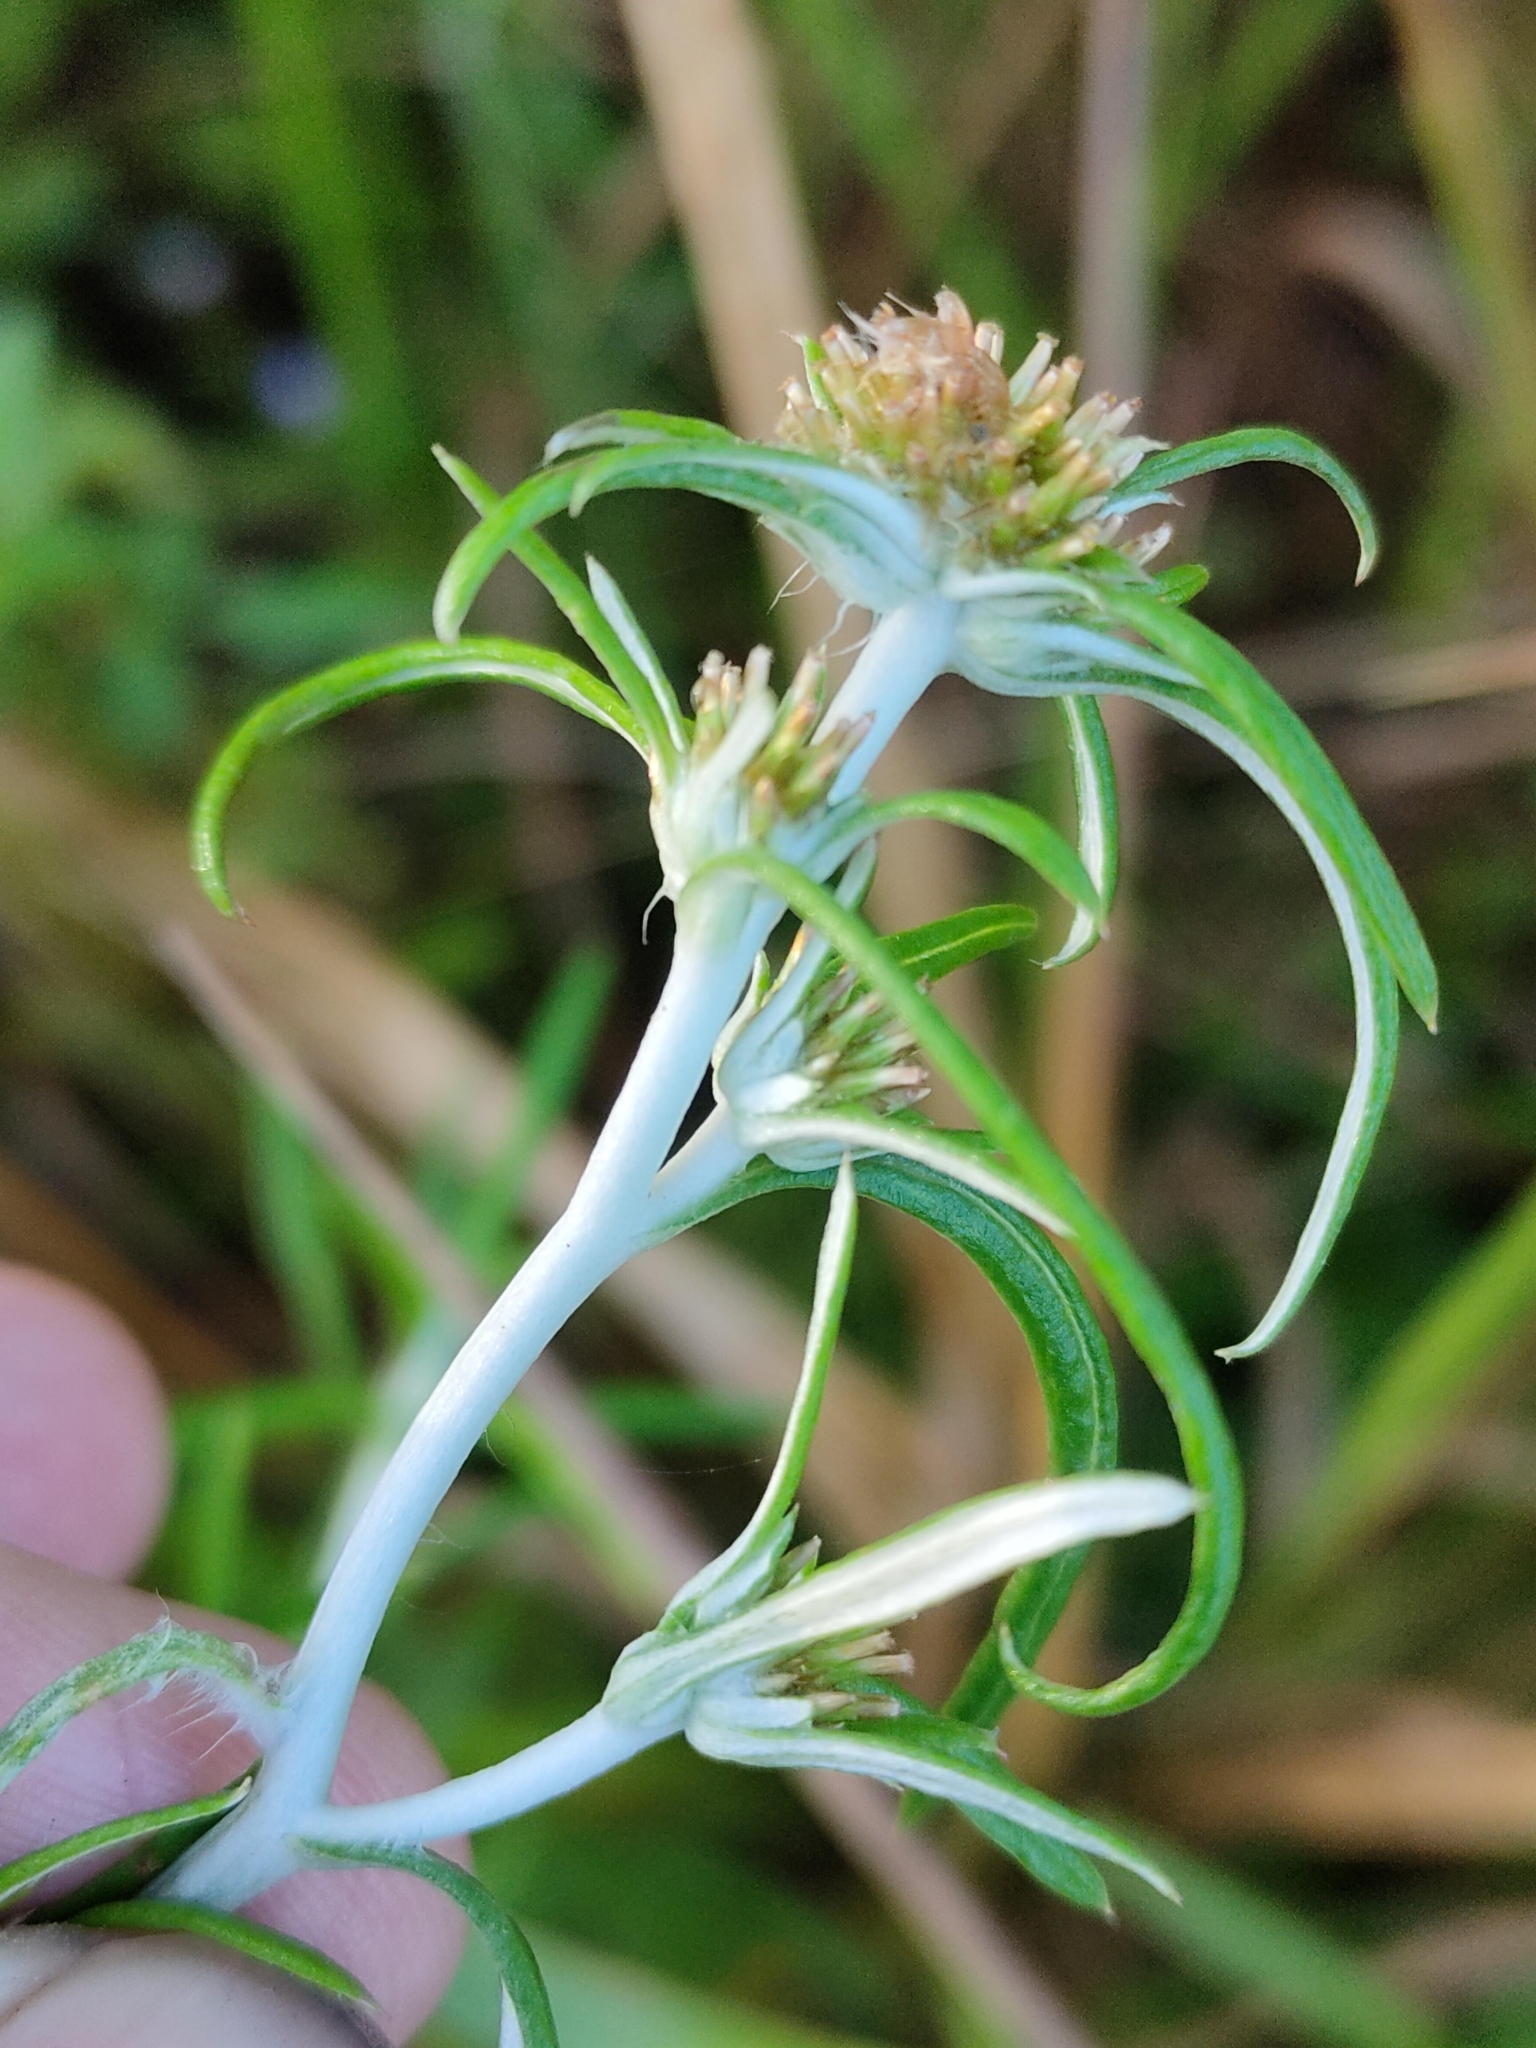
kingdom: Plantae
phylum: Tracheophyta
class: Magnoliopsida
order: Asterales
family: Asteraceae
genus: Euchiton
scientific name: Euchiton sphaericus
